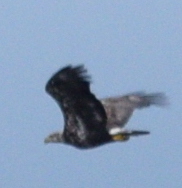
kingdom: Animalia
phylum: Chordata
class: Aves
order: Accipitriformes
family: Accipitridae
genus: Haliaeetus
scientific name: Haliaeetus leucocephalus
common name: Bald eagle
